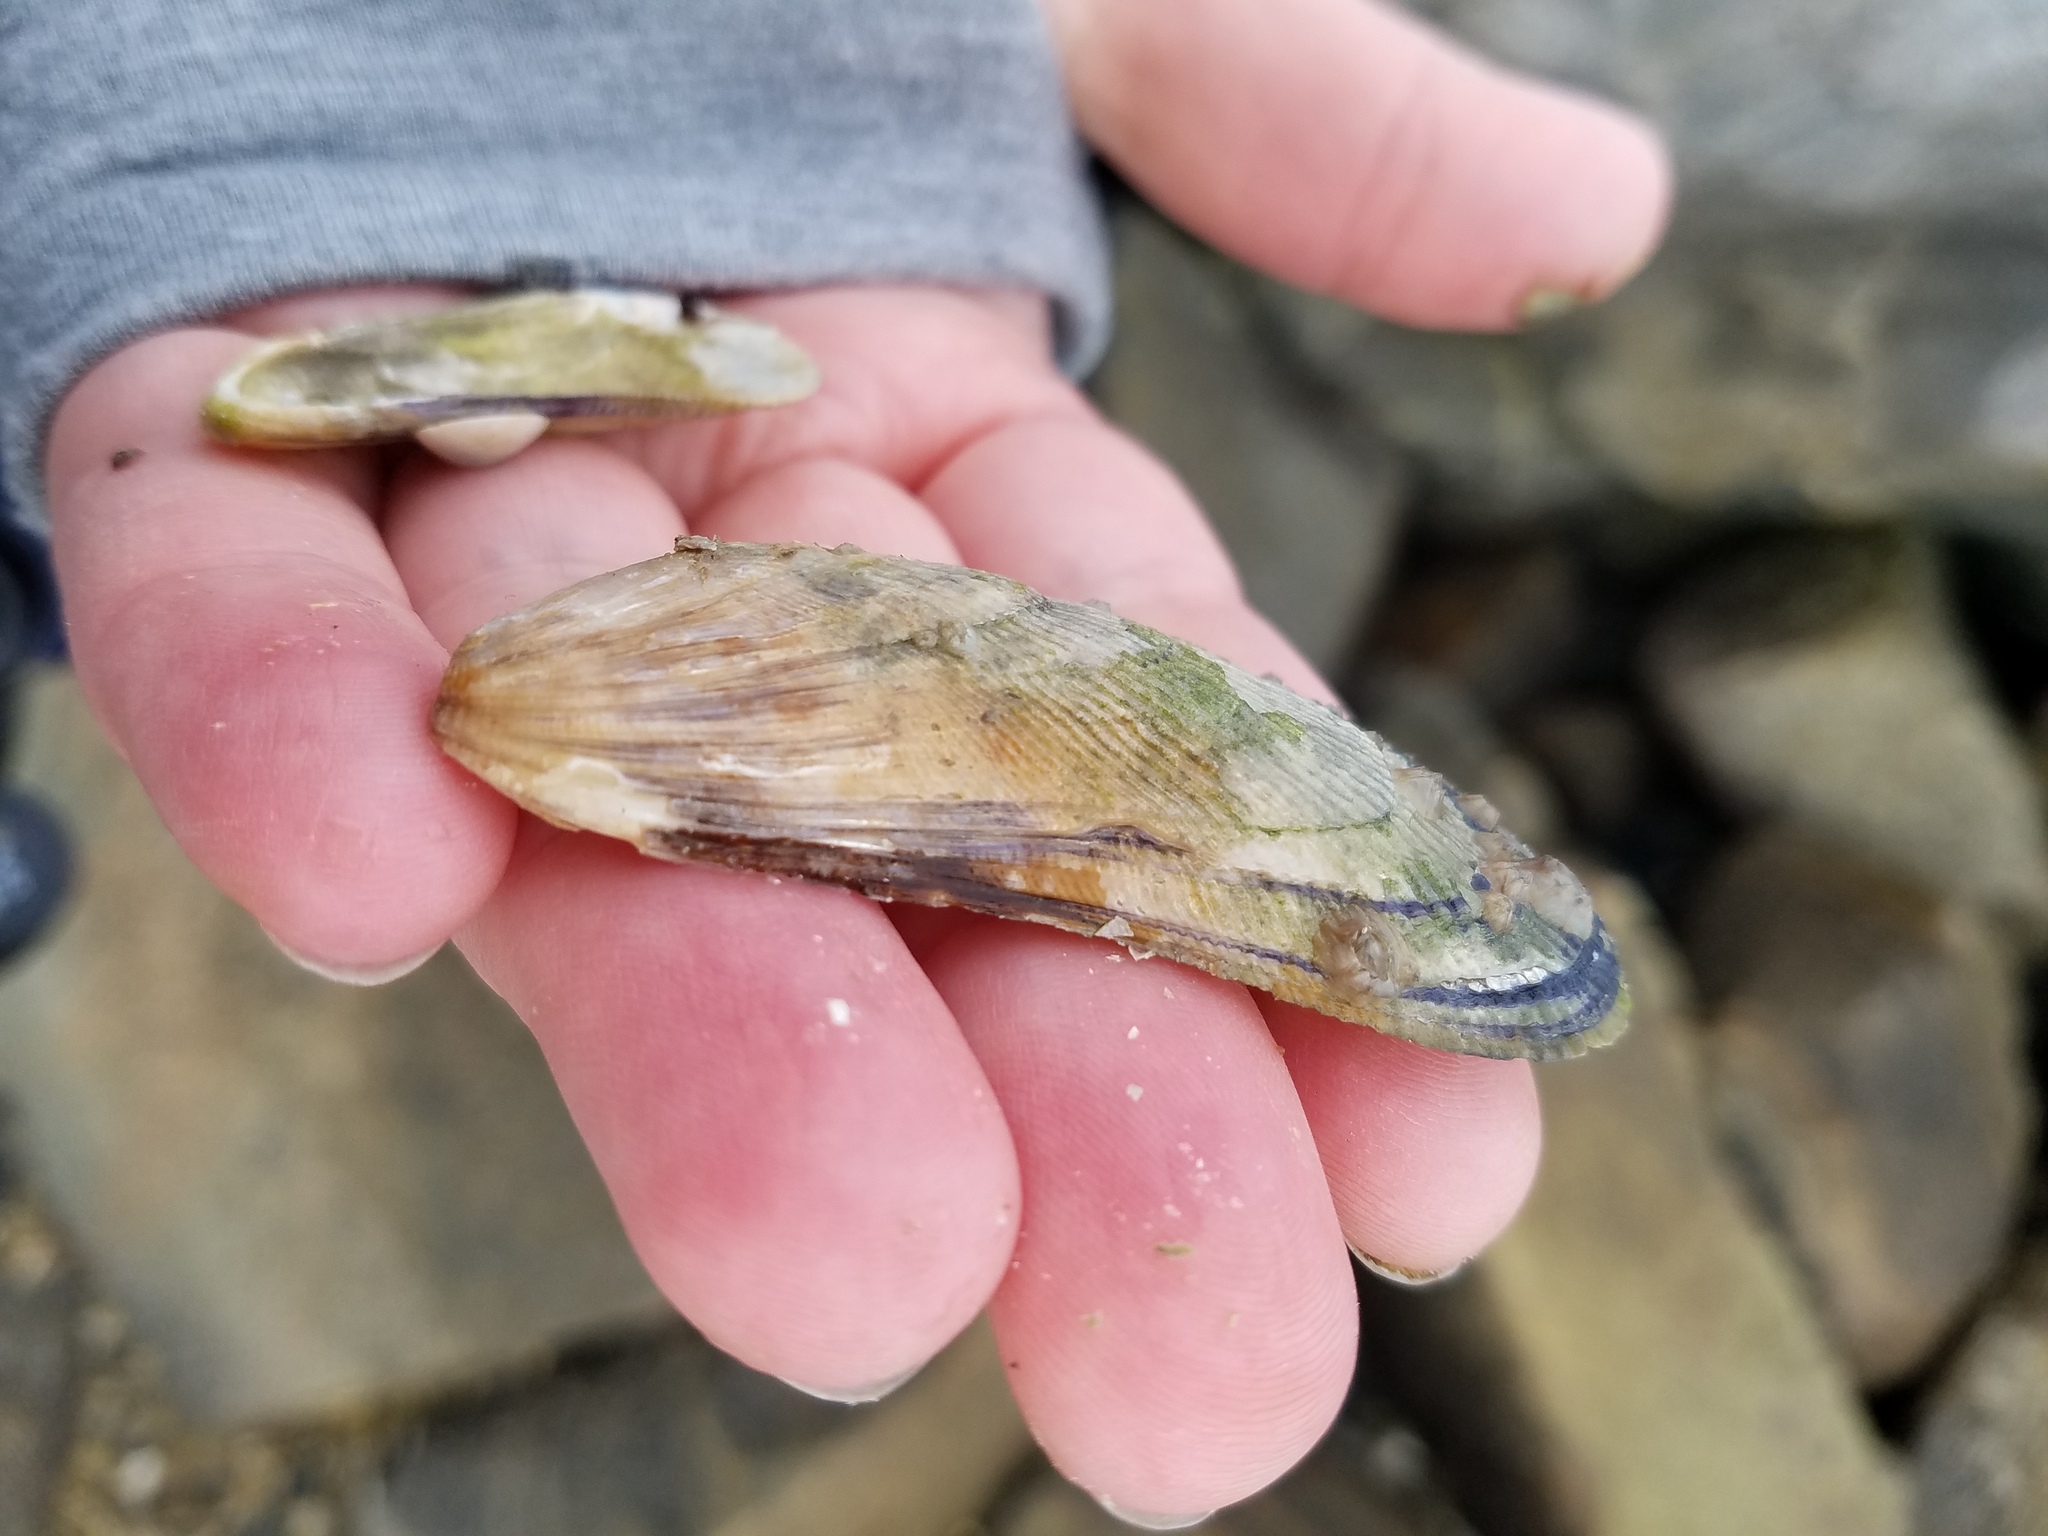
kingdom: Animalia
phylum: Mollusca
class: Bivalvia
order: Mytilida
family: Mytilidae
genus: Geukensia
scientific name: Geukensia demissa
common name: Ribbed mussel
